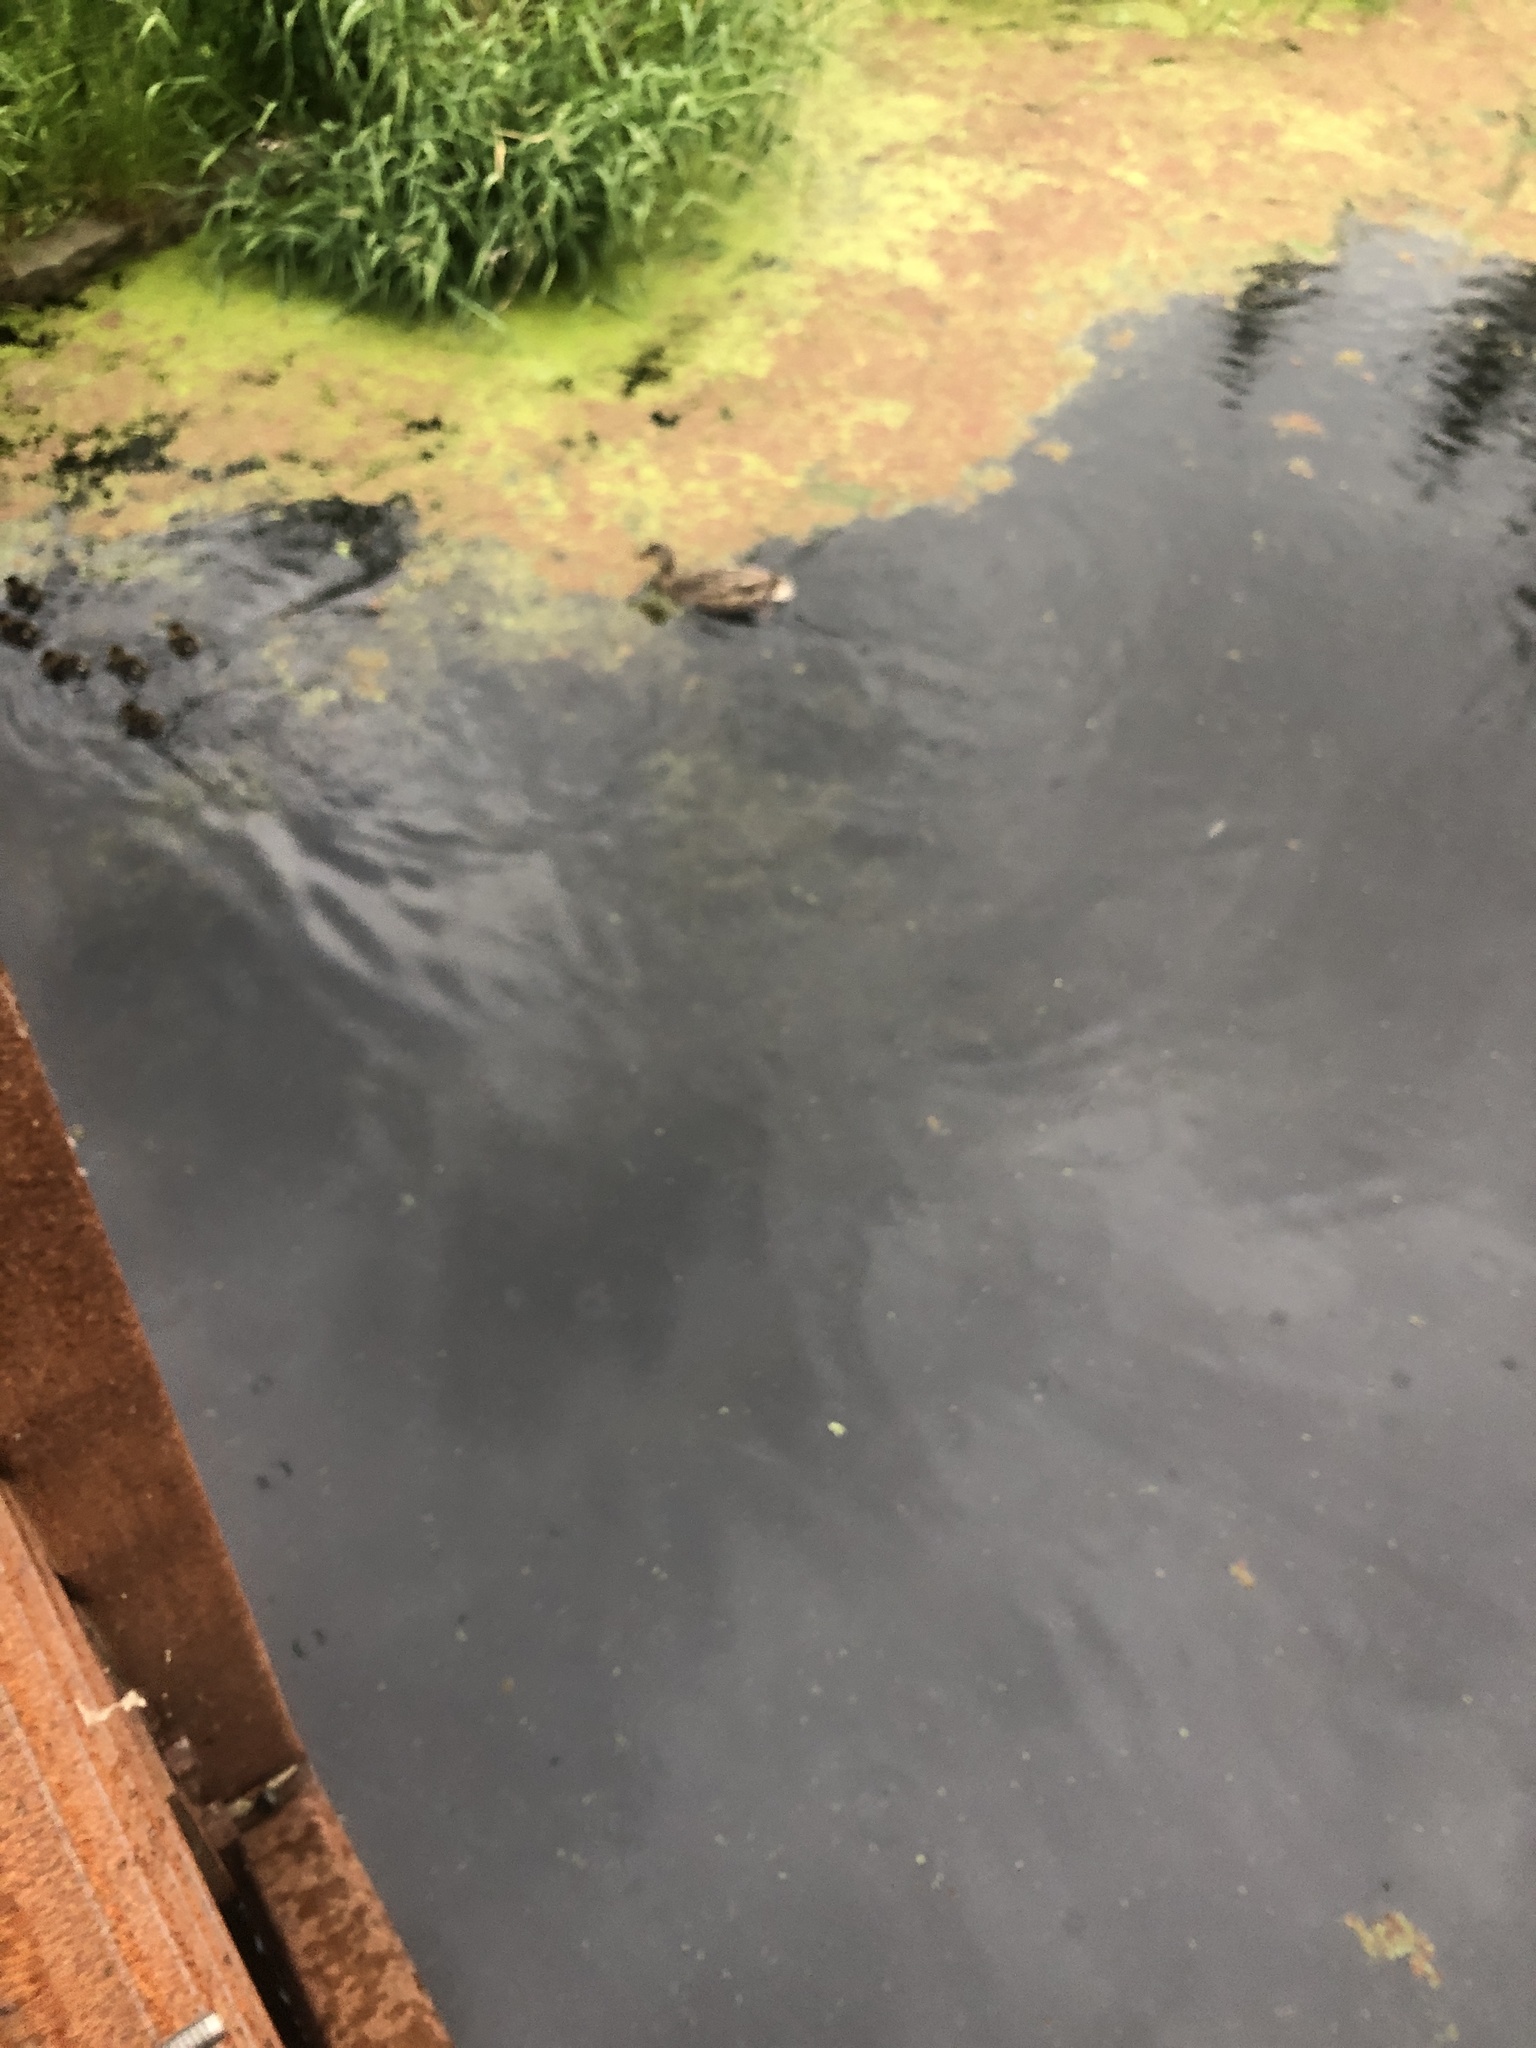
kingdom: Animalia
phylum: Chordata
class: Aves
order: Anseriformes
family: Anatidae
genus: Anas
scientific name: Anas platyrhynchos
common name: Mallard
